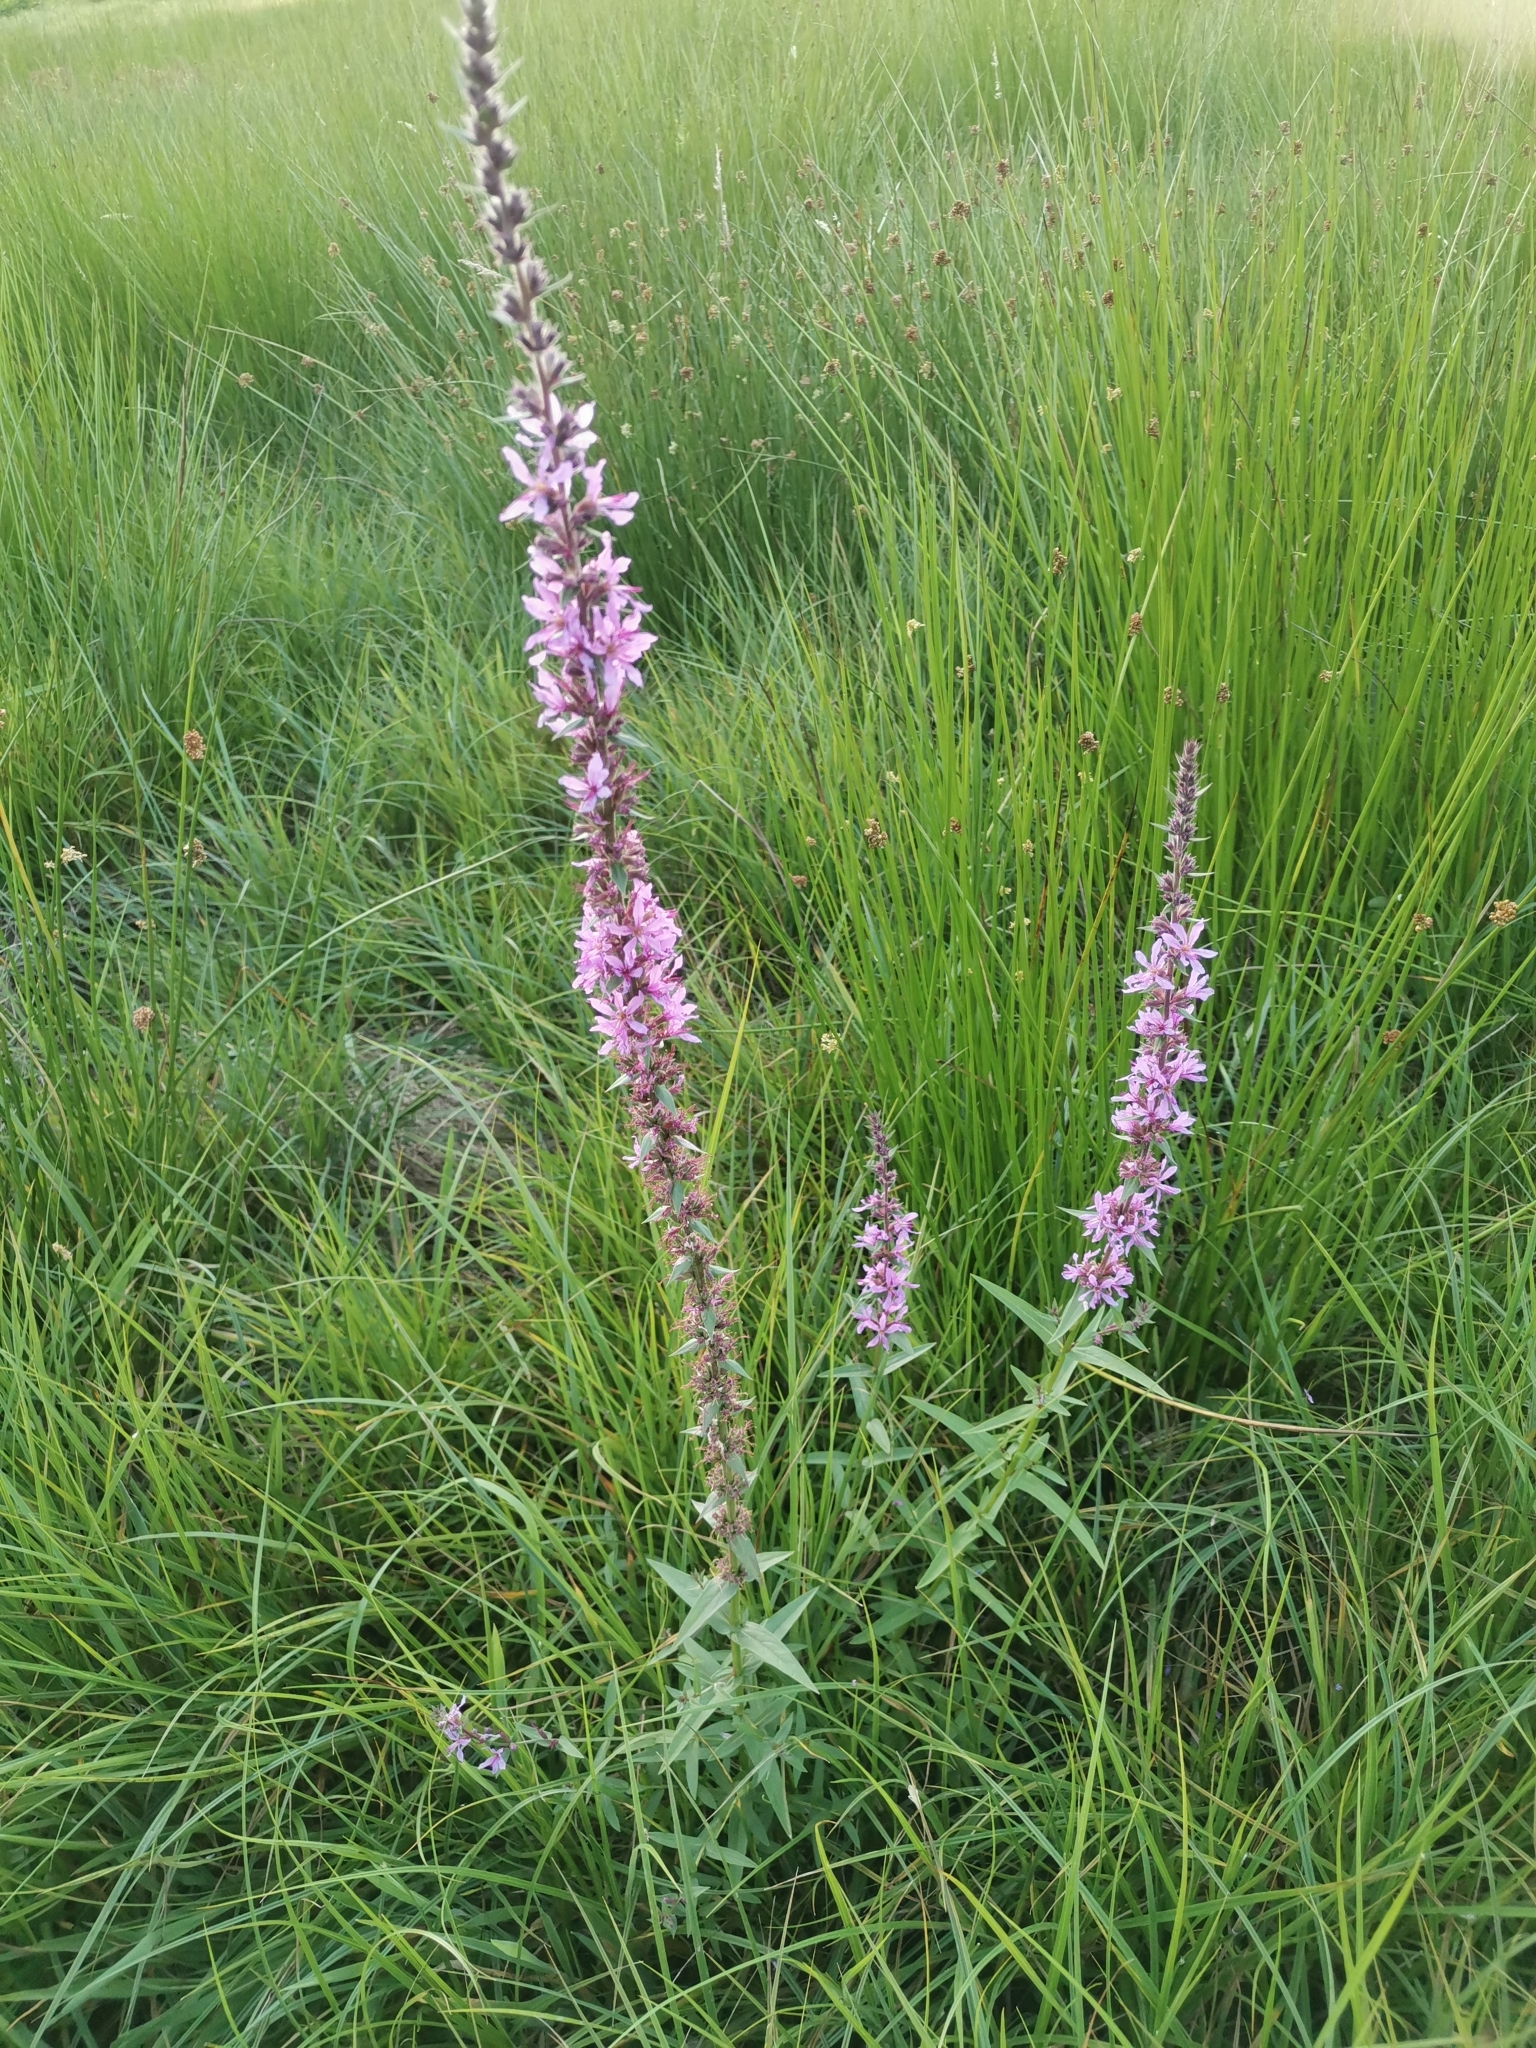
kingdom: Plantae
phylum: Tracheophyta
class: Magnoliopsida
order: Myrtales
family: Lythraceae
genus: Lythrum
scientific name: Lythrum salicaria
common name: Purple loosestrife
